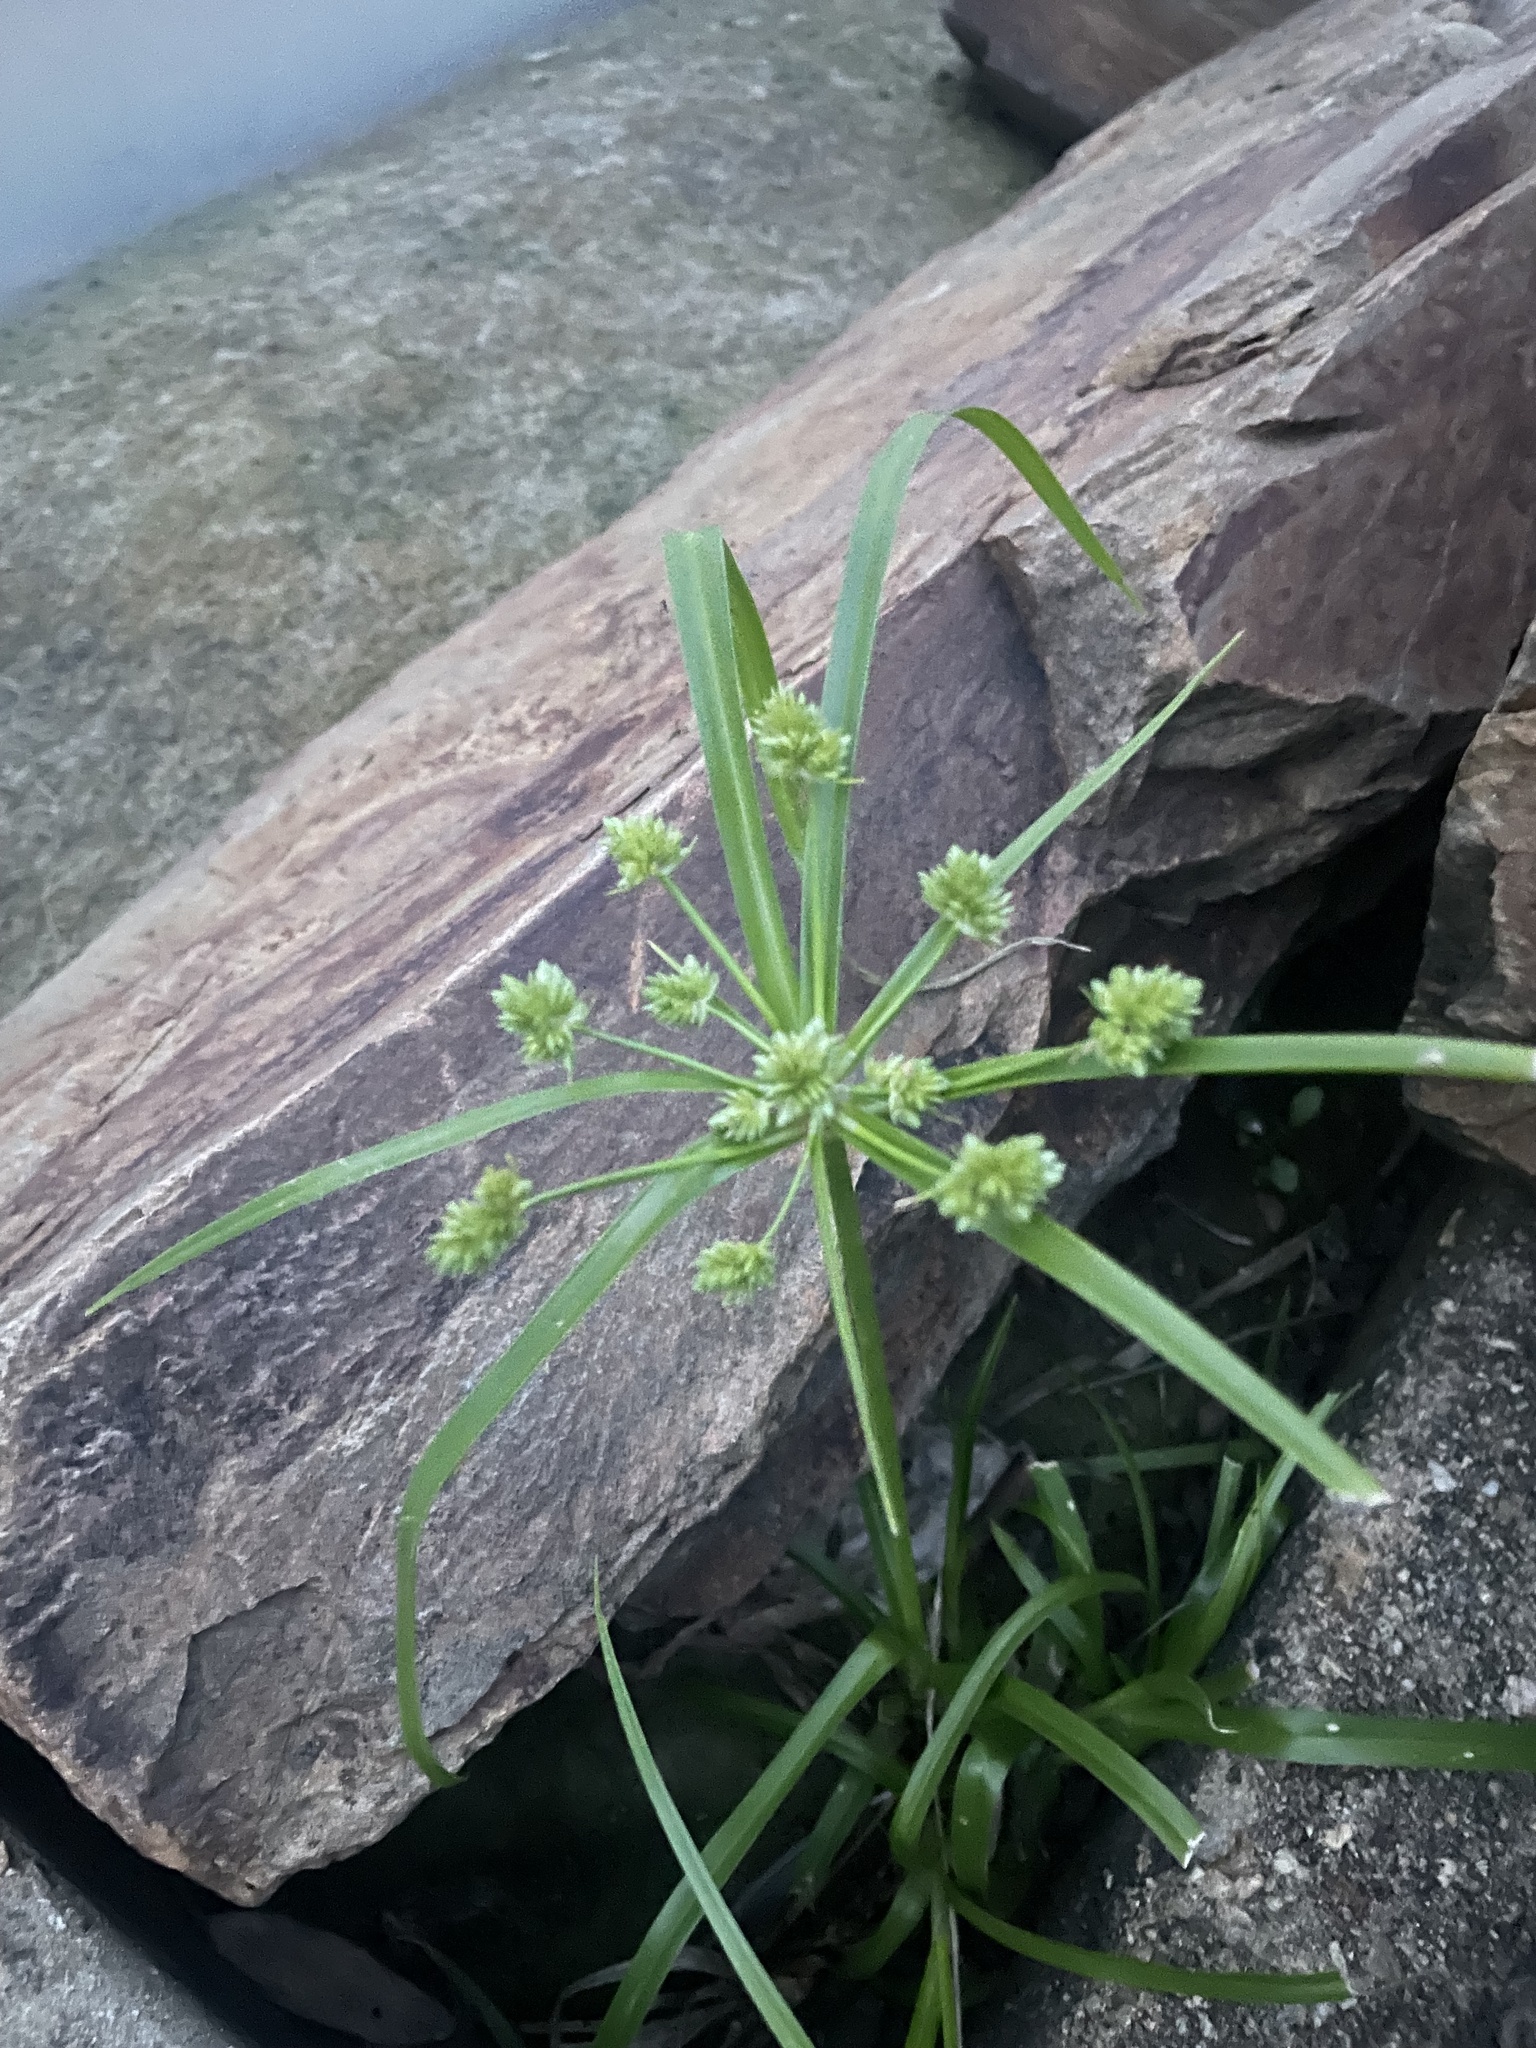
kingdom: Plantae
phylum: Tracheophyta
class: Liliopsida
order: Poales
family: Cyperaceae
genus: Cyperus
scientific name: Cyperus eragrostis
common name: Tall flatsedge
